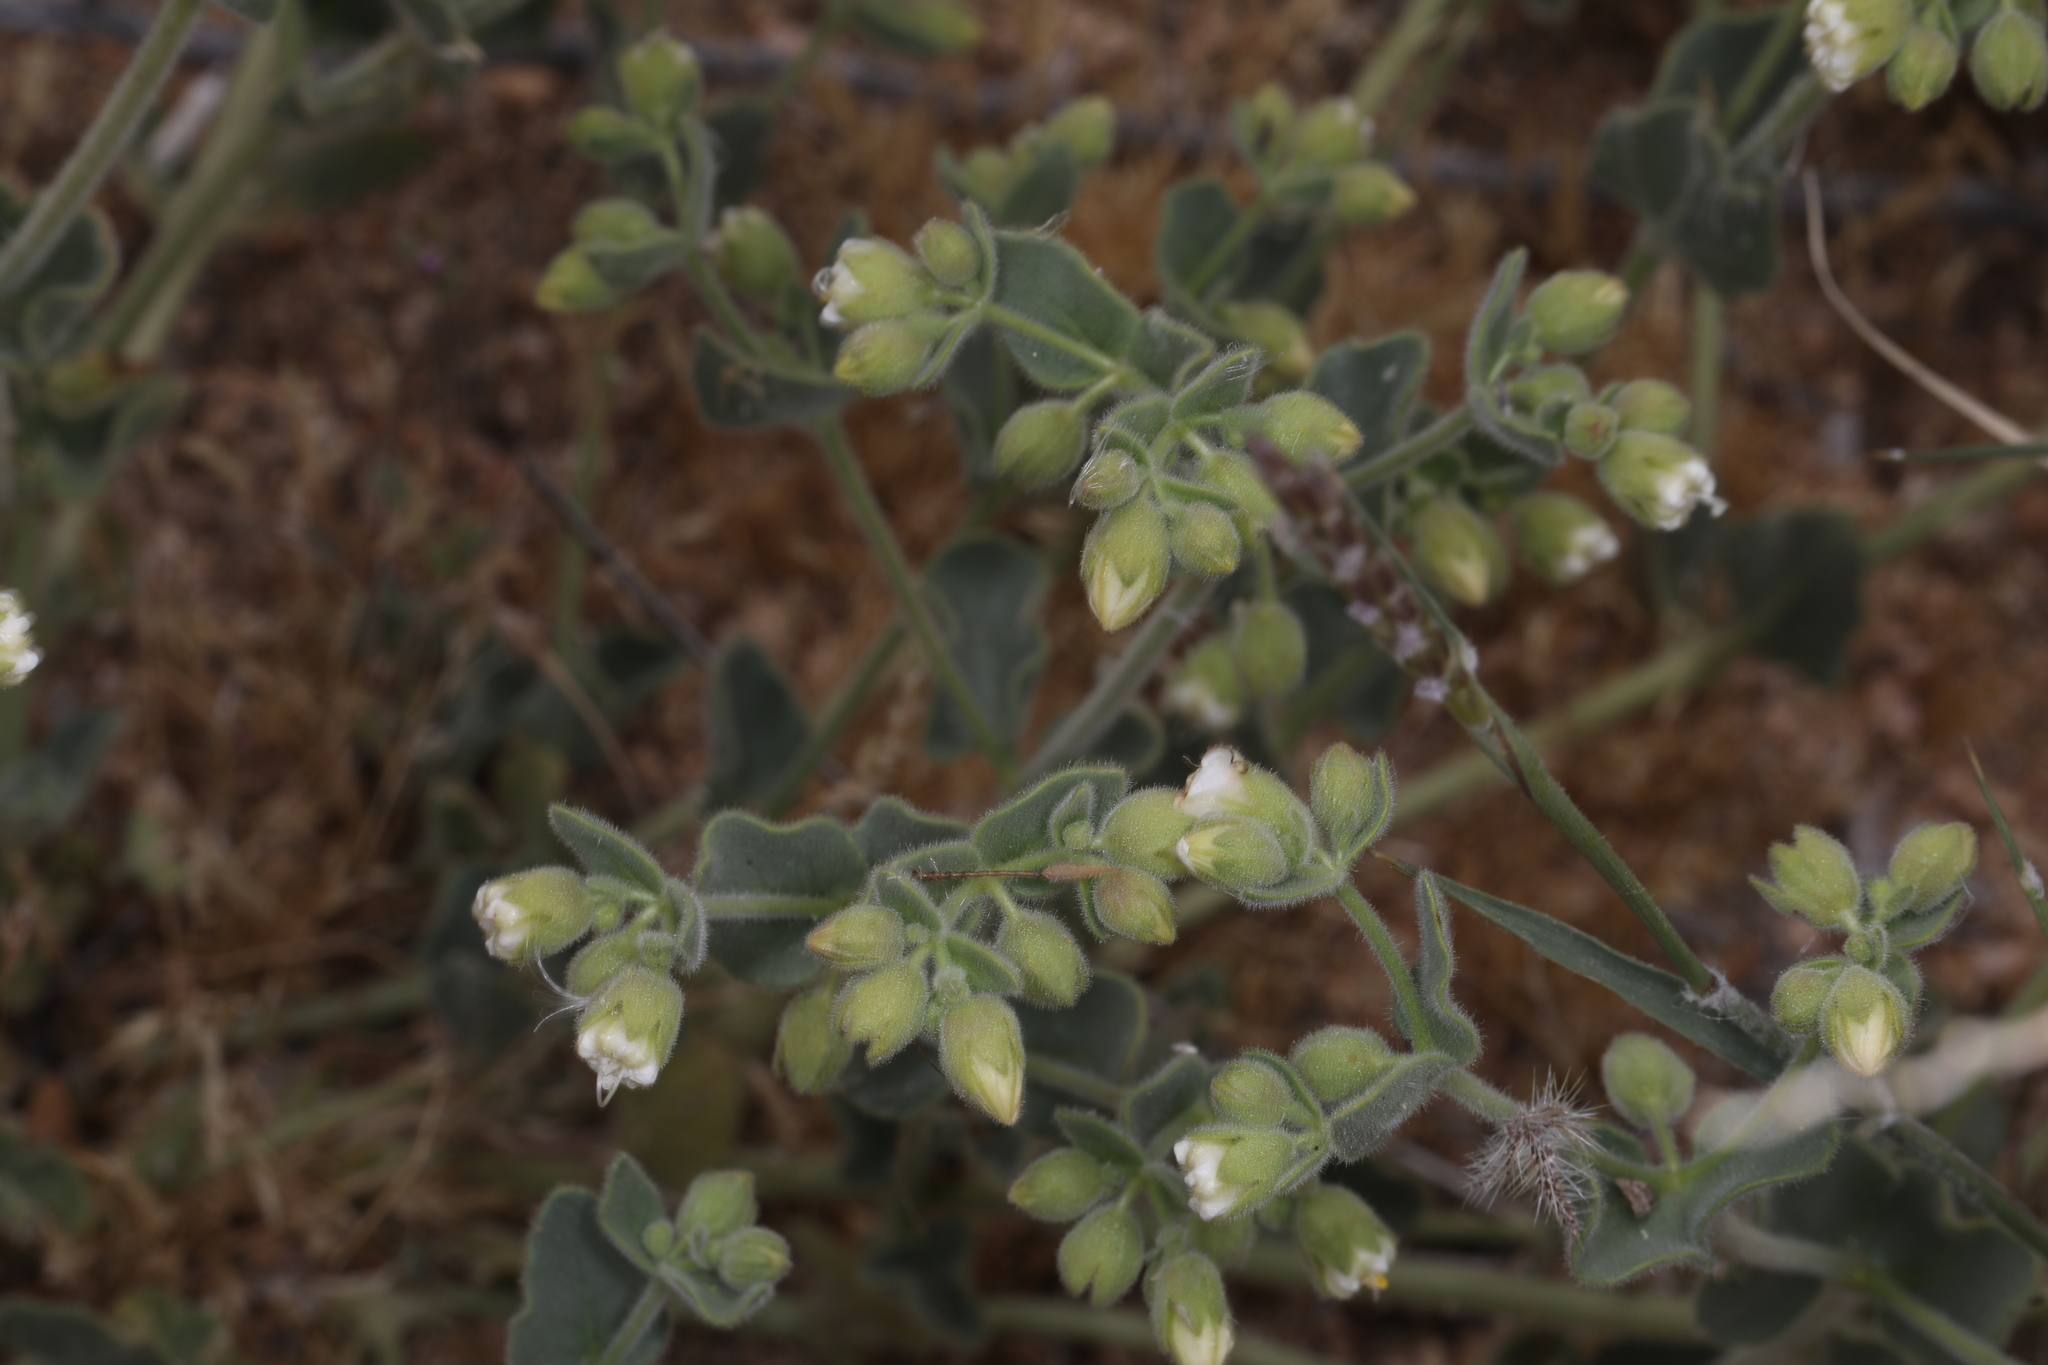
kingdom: Plantae
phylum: Tracheophyta
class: Magnoliopsida
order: Caryophyllales
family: Nyctaginaceae
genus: Mirabilis
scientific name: Mirabilis laevis
